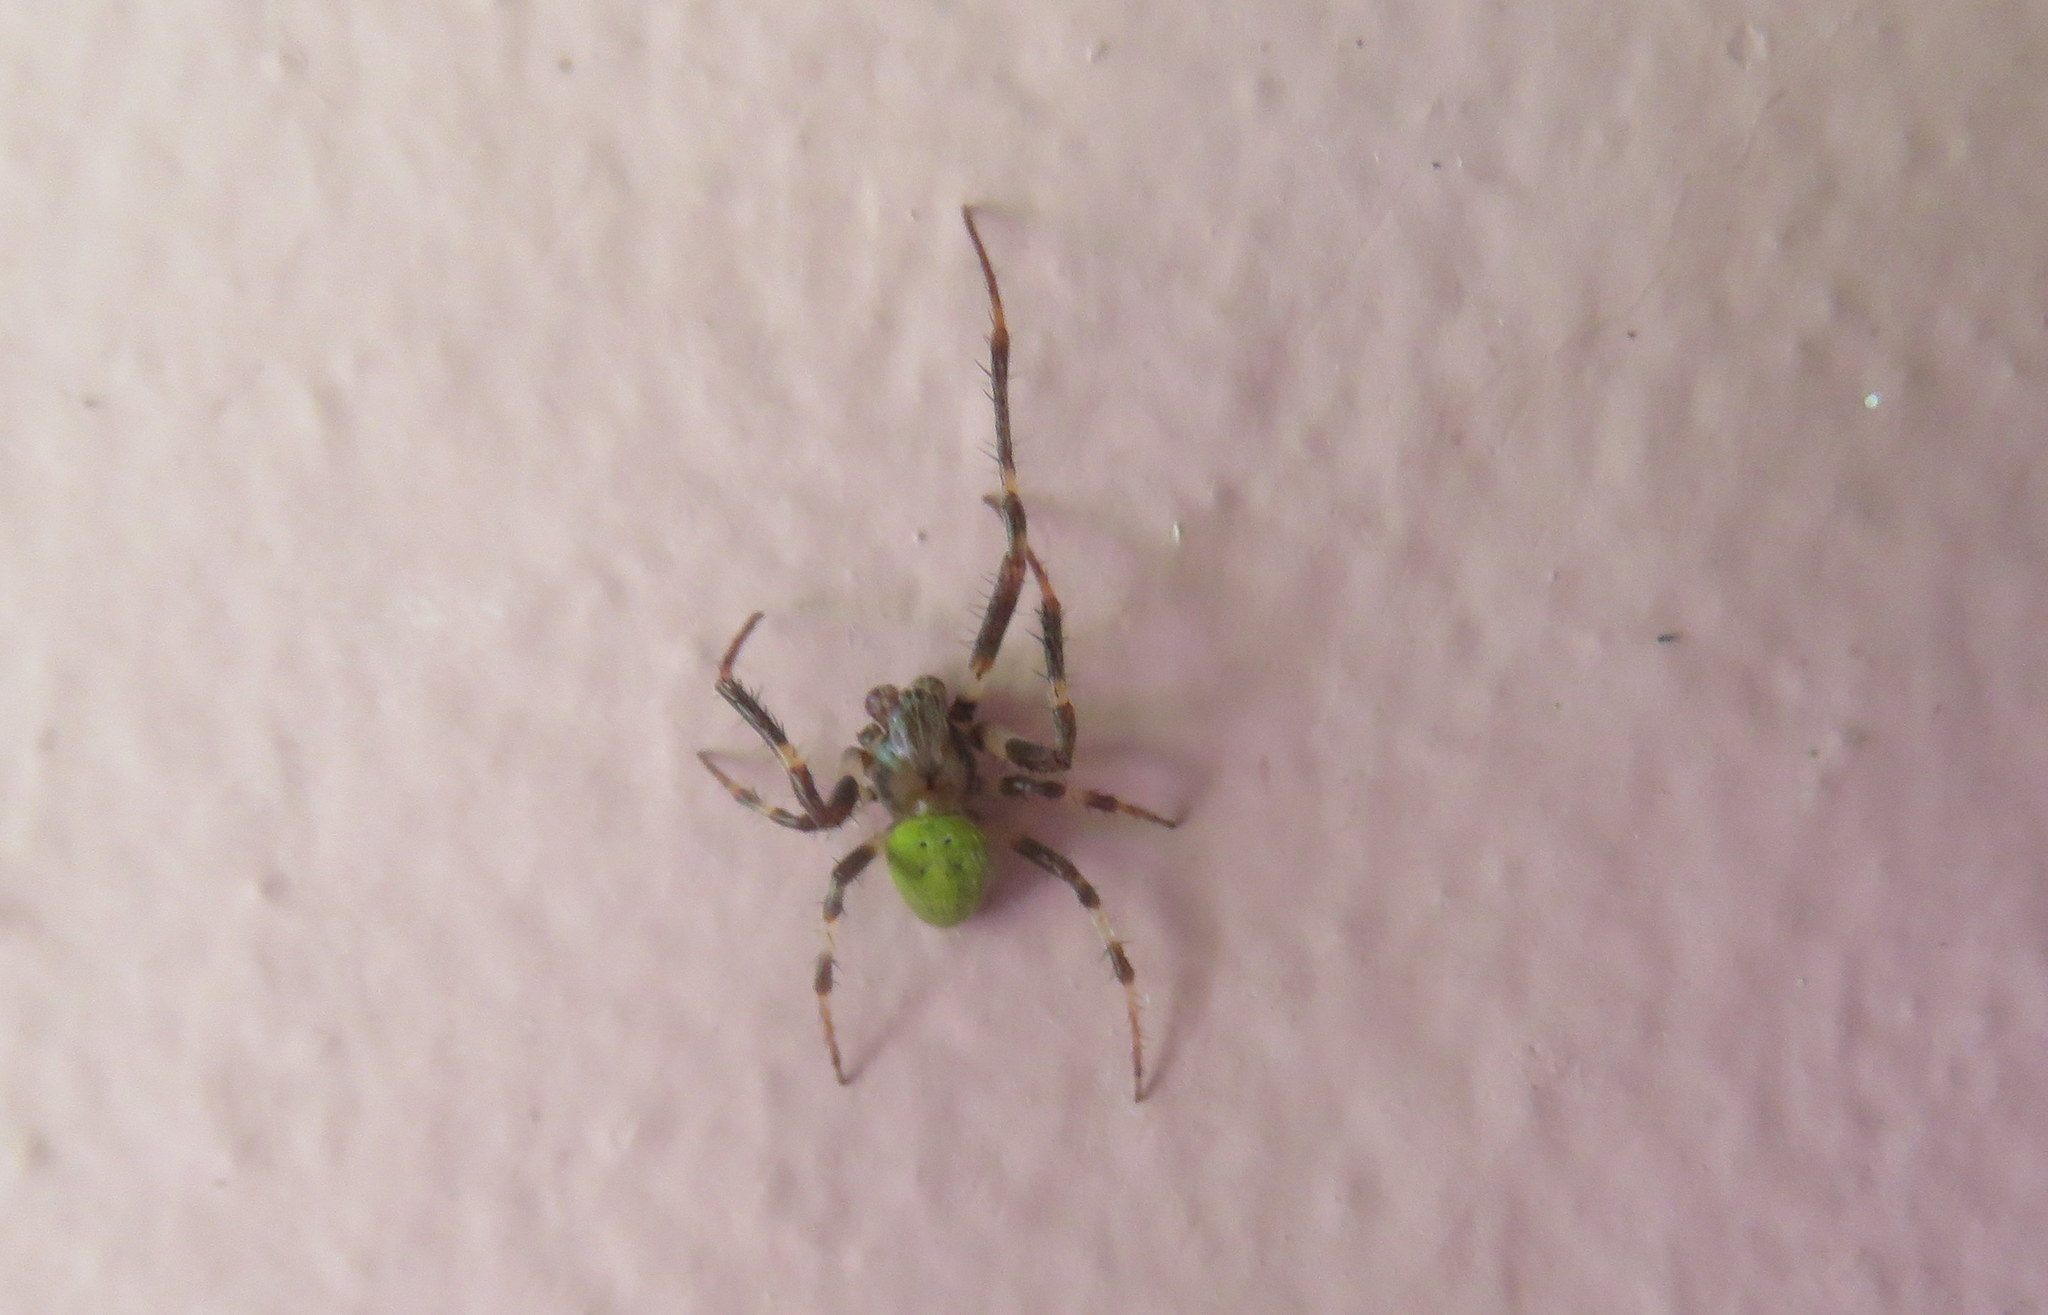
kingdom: Animalia
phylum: Arthropoda
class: Arachnida
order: Araneae
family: Araneidae
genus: Araneus
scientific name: Araneus lathyrinus
